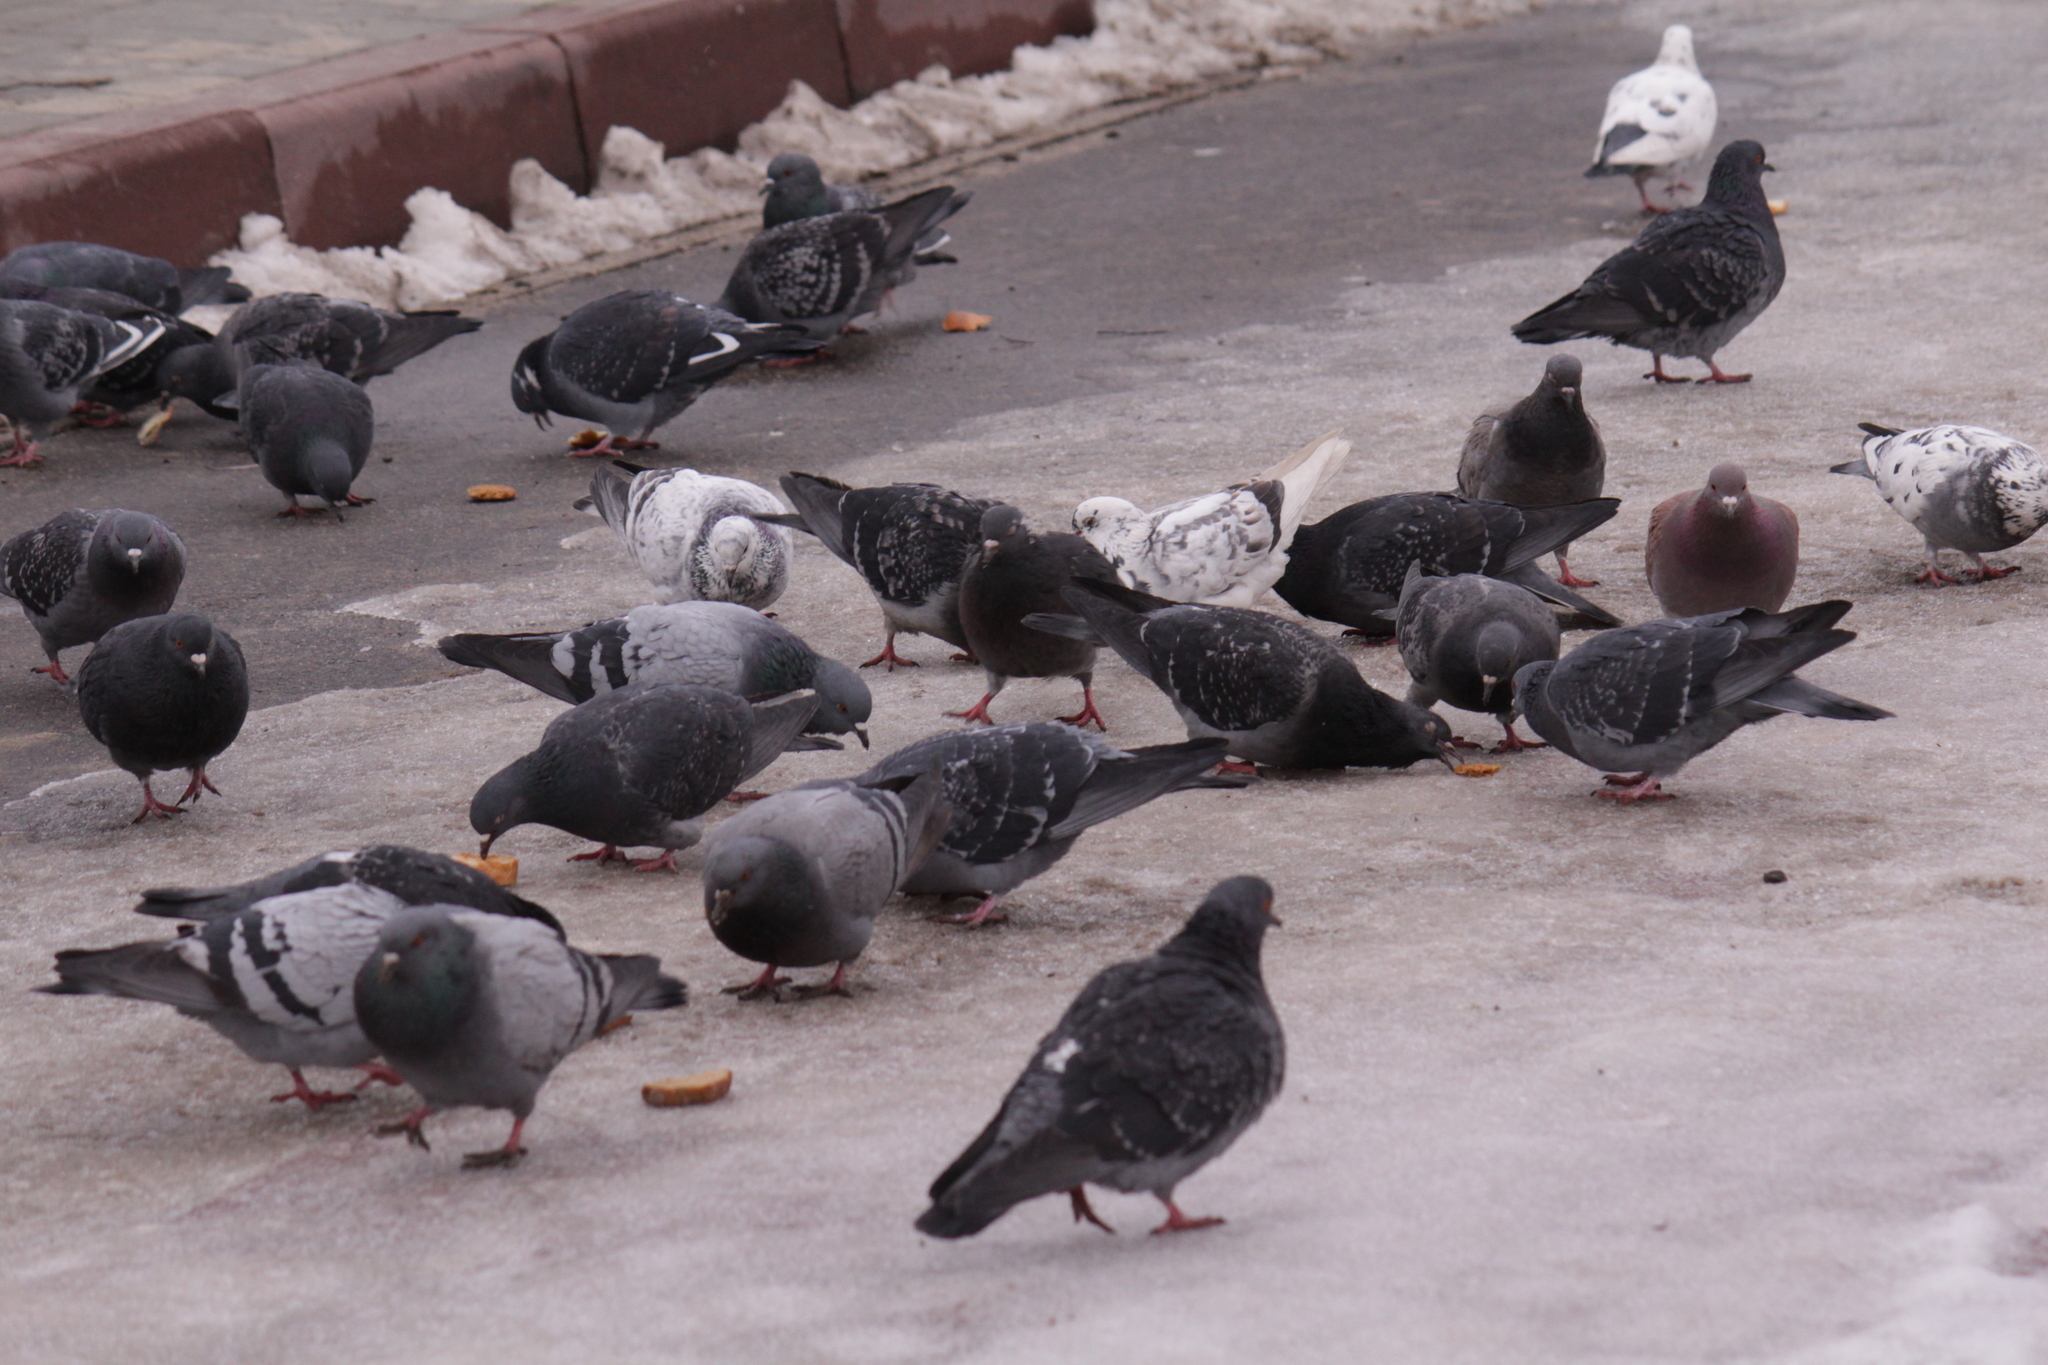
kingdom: Animalia
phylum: Chordata
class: Aves
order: Columbiformes
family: Columbidae
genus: Columba
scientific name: Columba livia
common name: Rock pigeon
